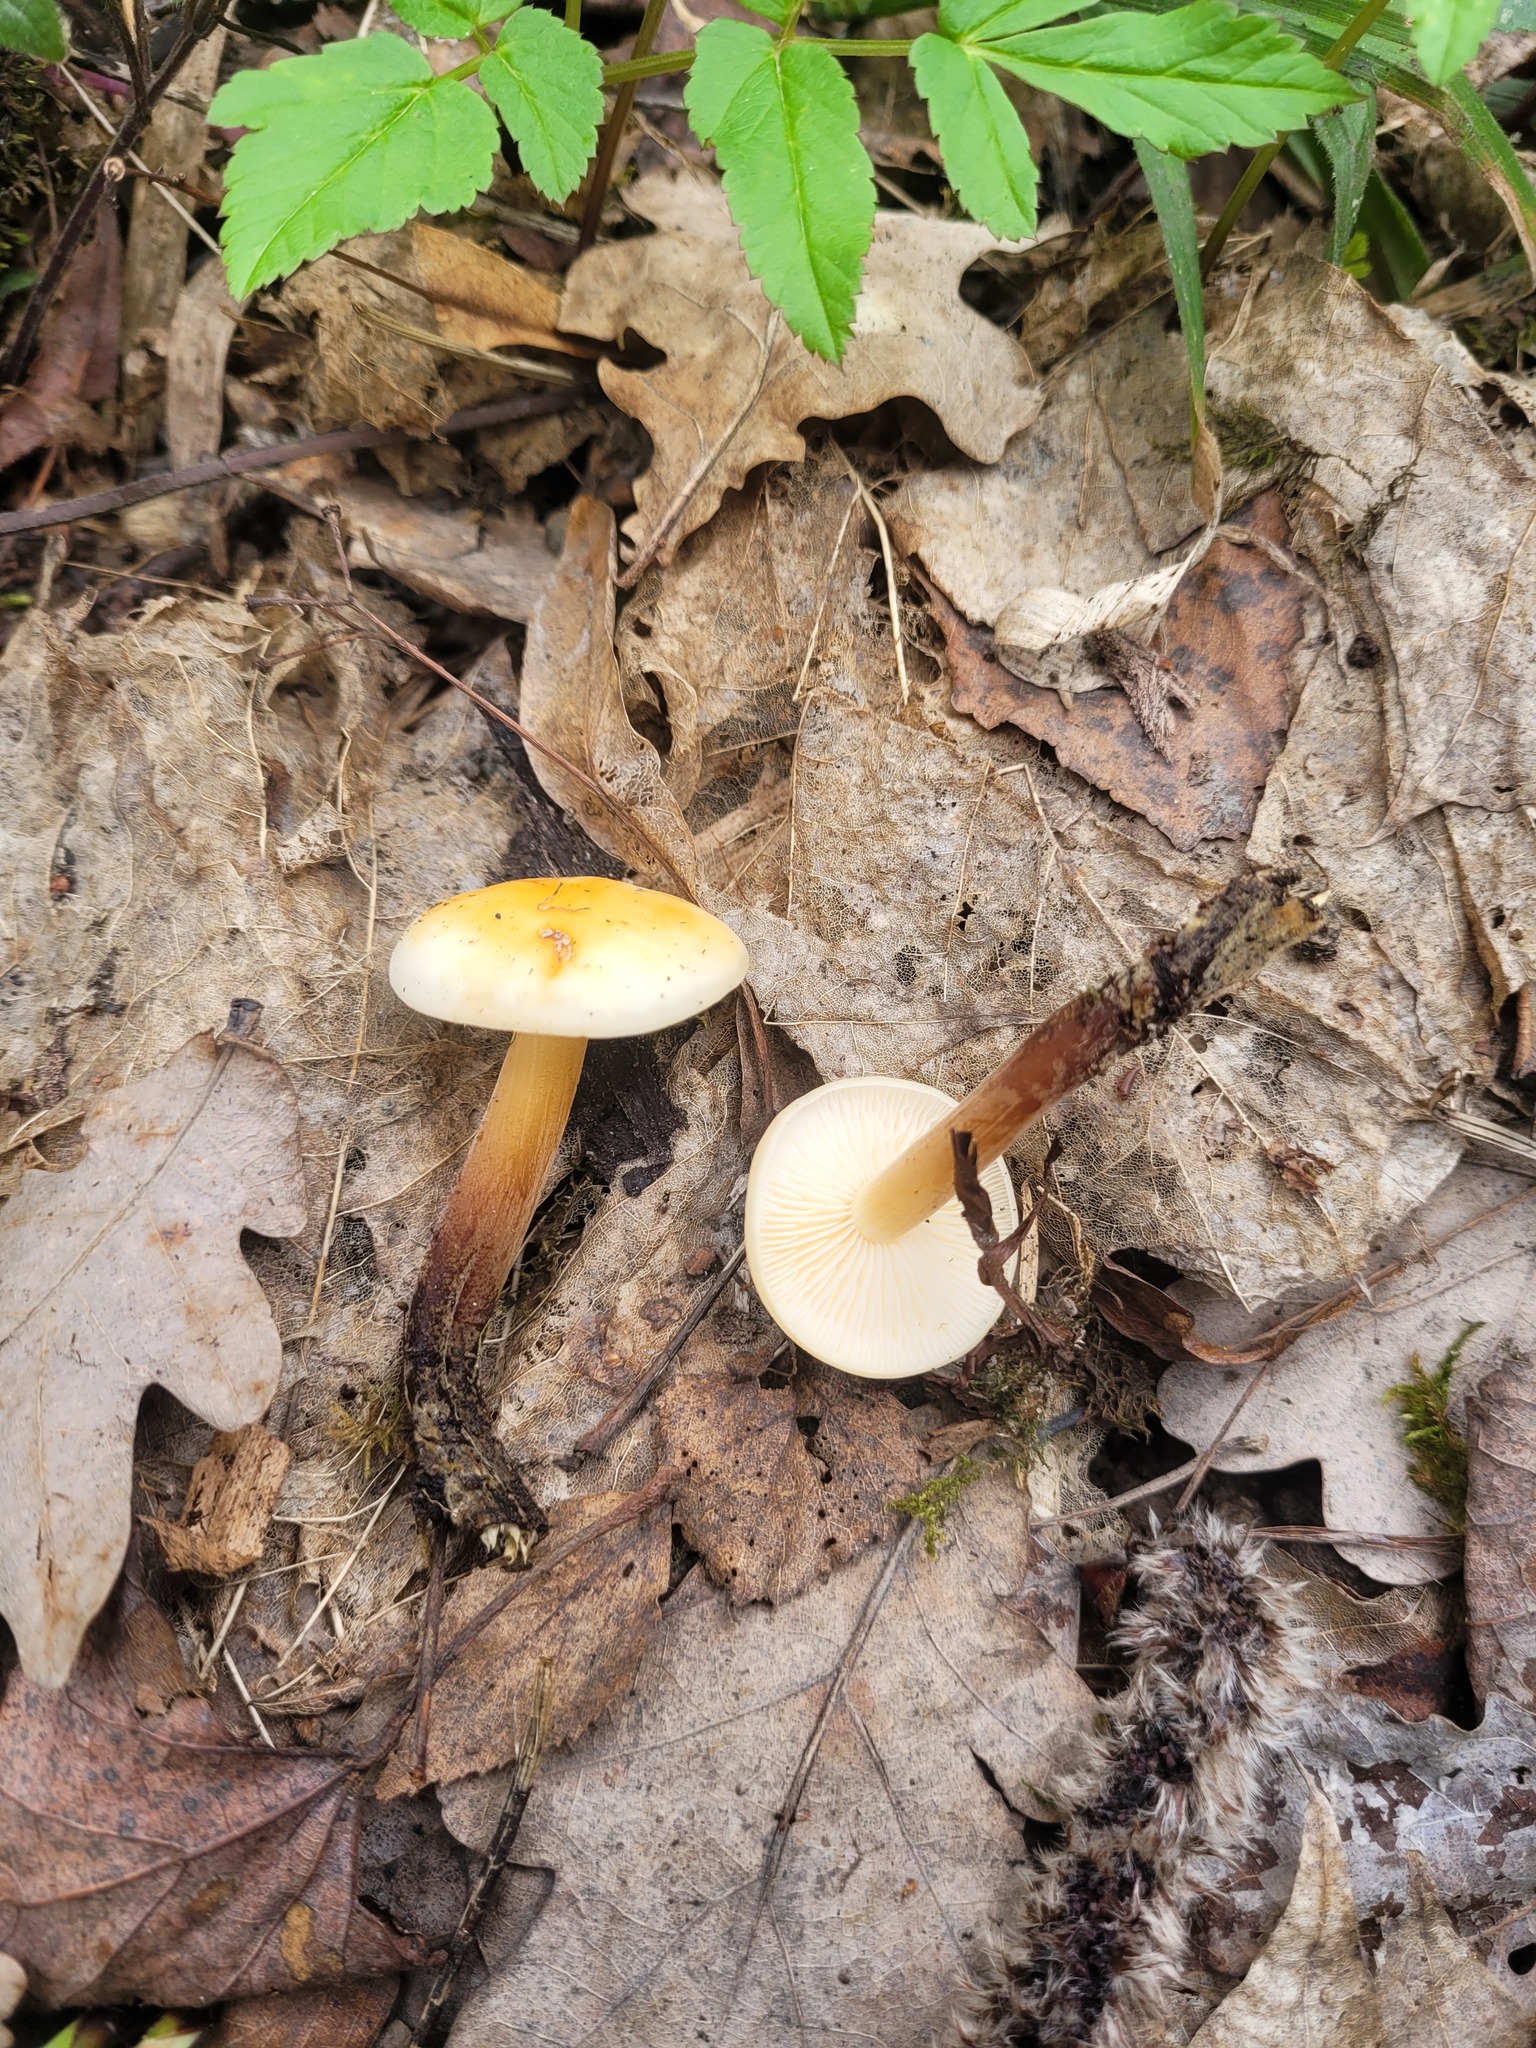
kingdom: Fungi
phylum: Basidiomycota
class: Agaricomycetes
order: Agaricales
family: Physalacriaceae
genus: Flammulina
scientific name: Flammulina
